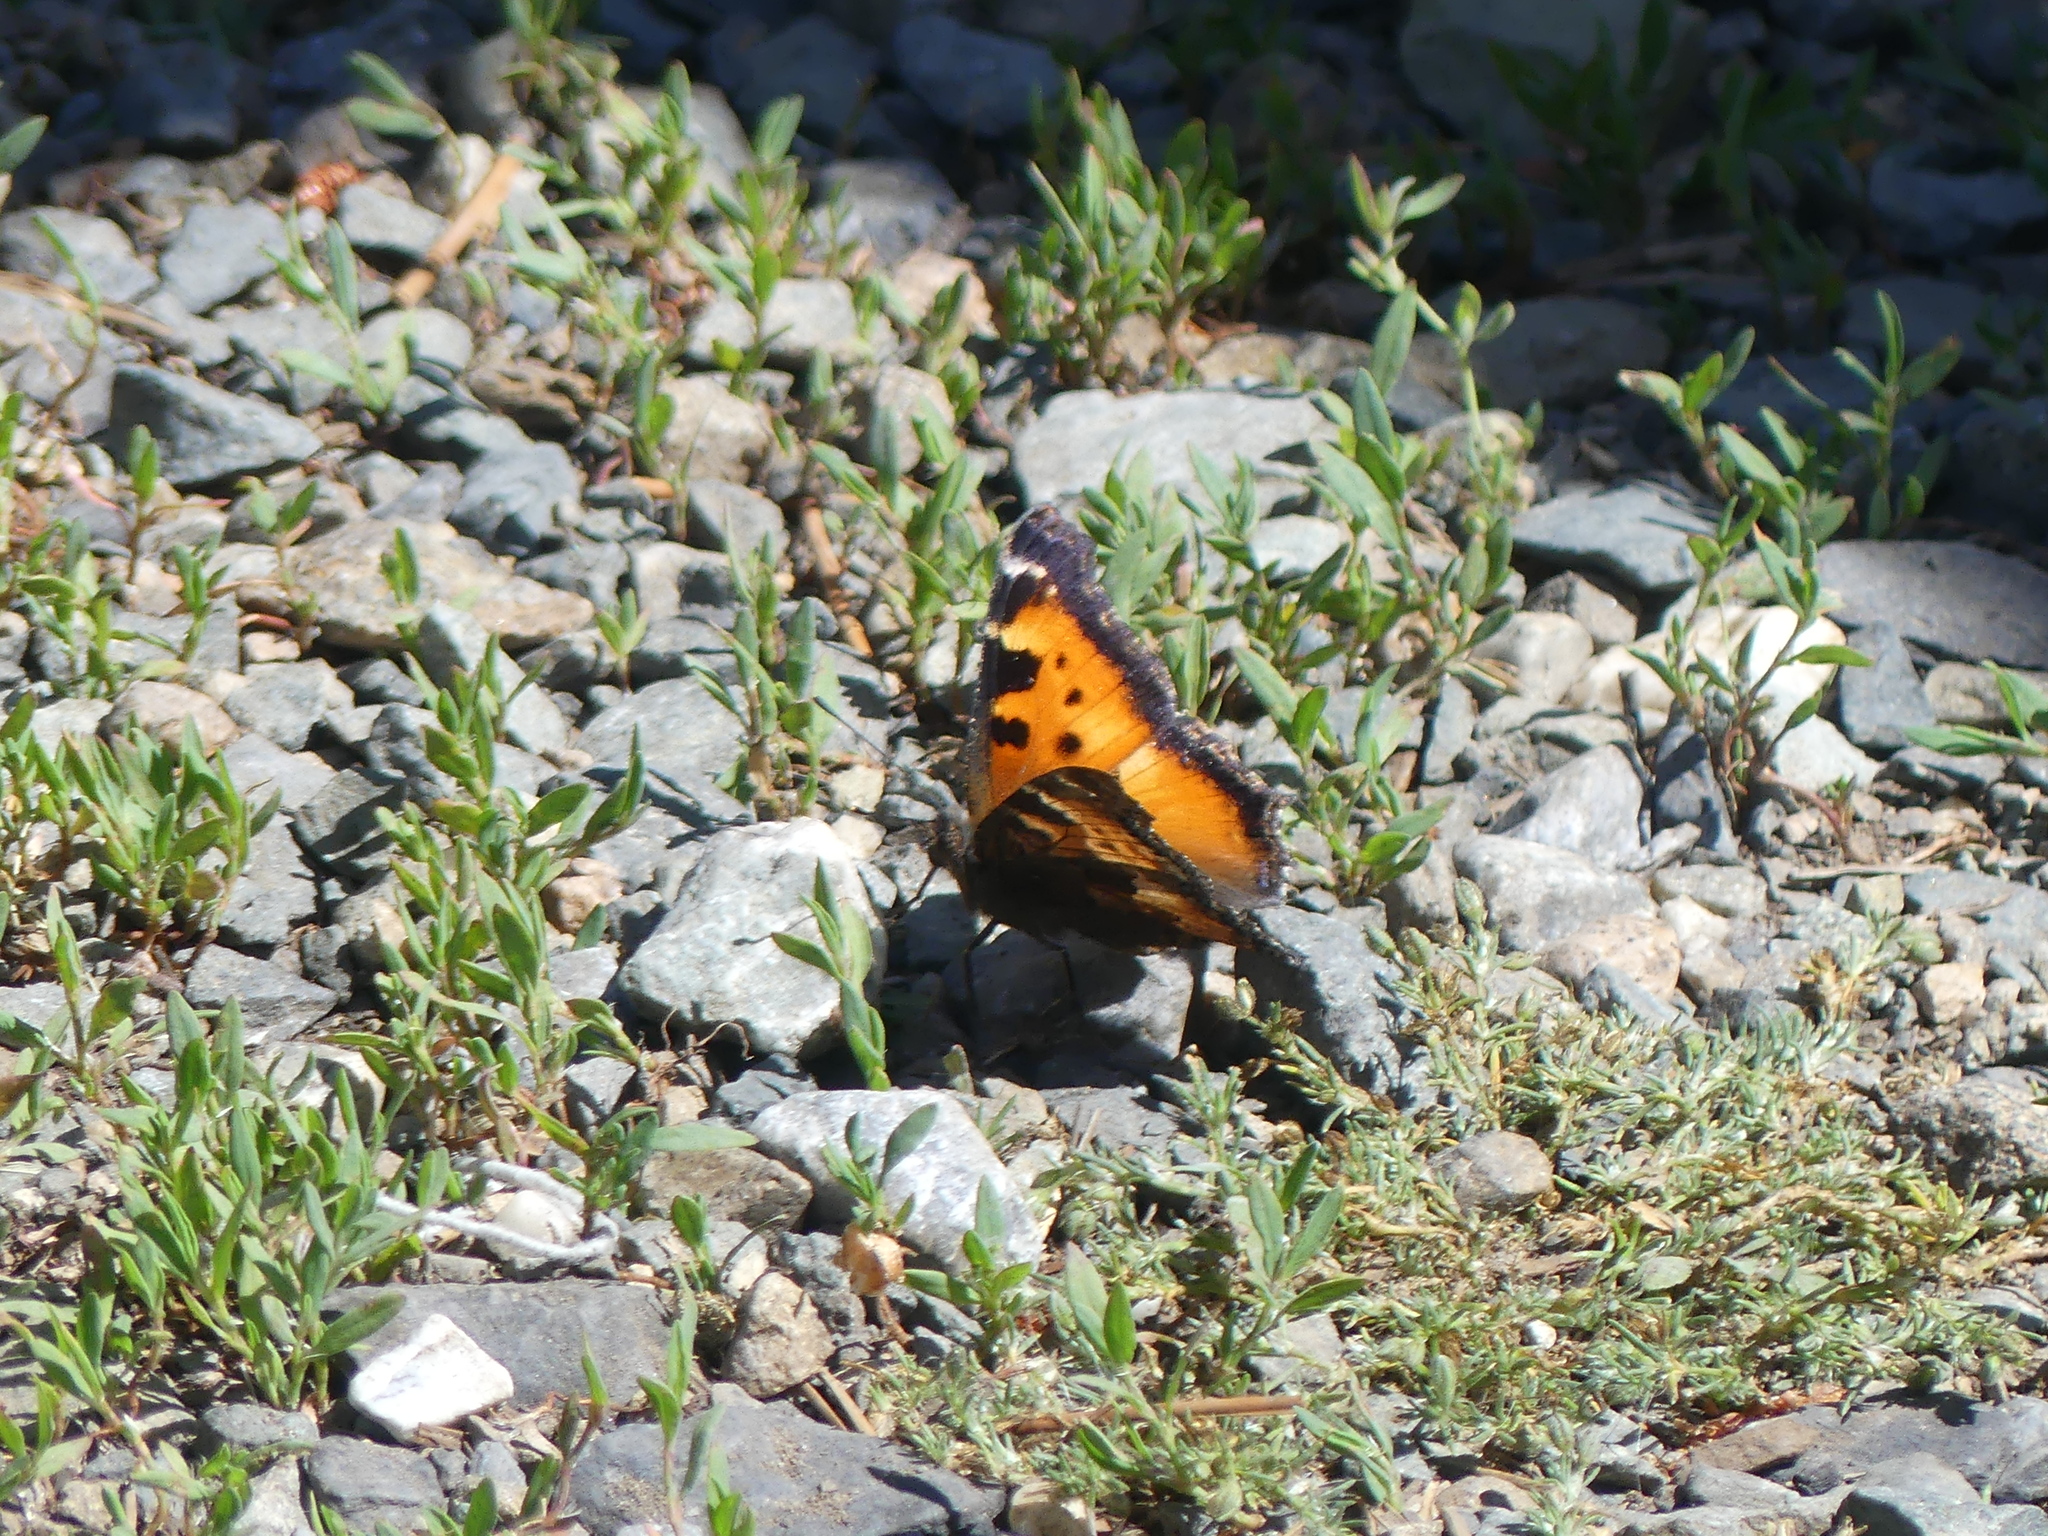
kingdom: Animalia
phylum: Arthropoda
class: Insecta
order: Lepidoptera
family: Nymphalidae
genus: Nymphalis
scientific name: Nymphalis californica
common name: California tortoiseshell
